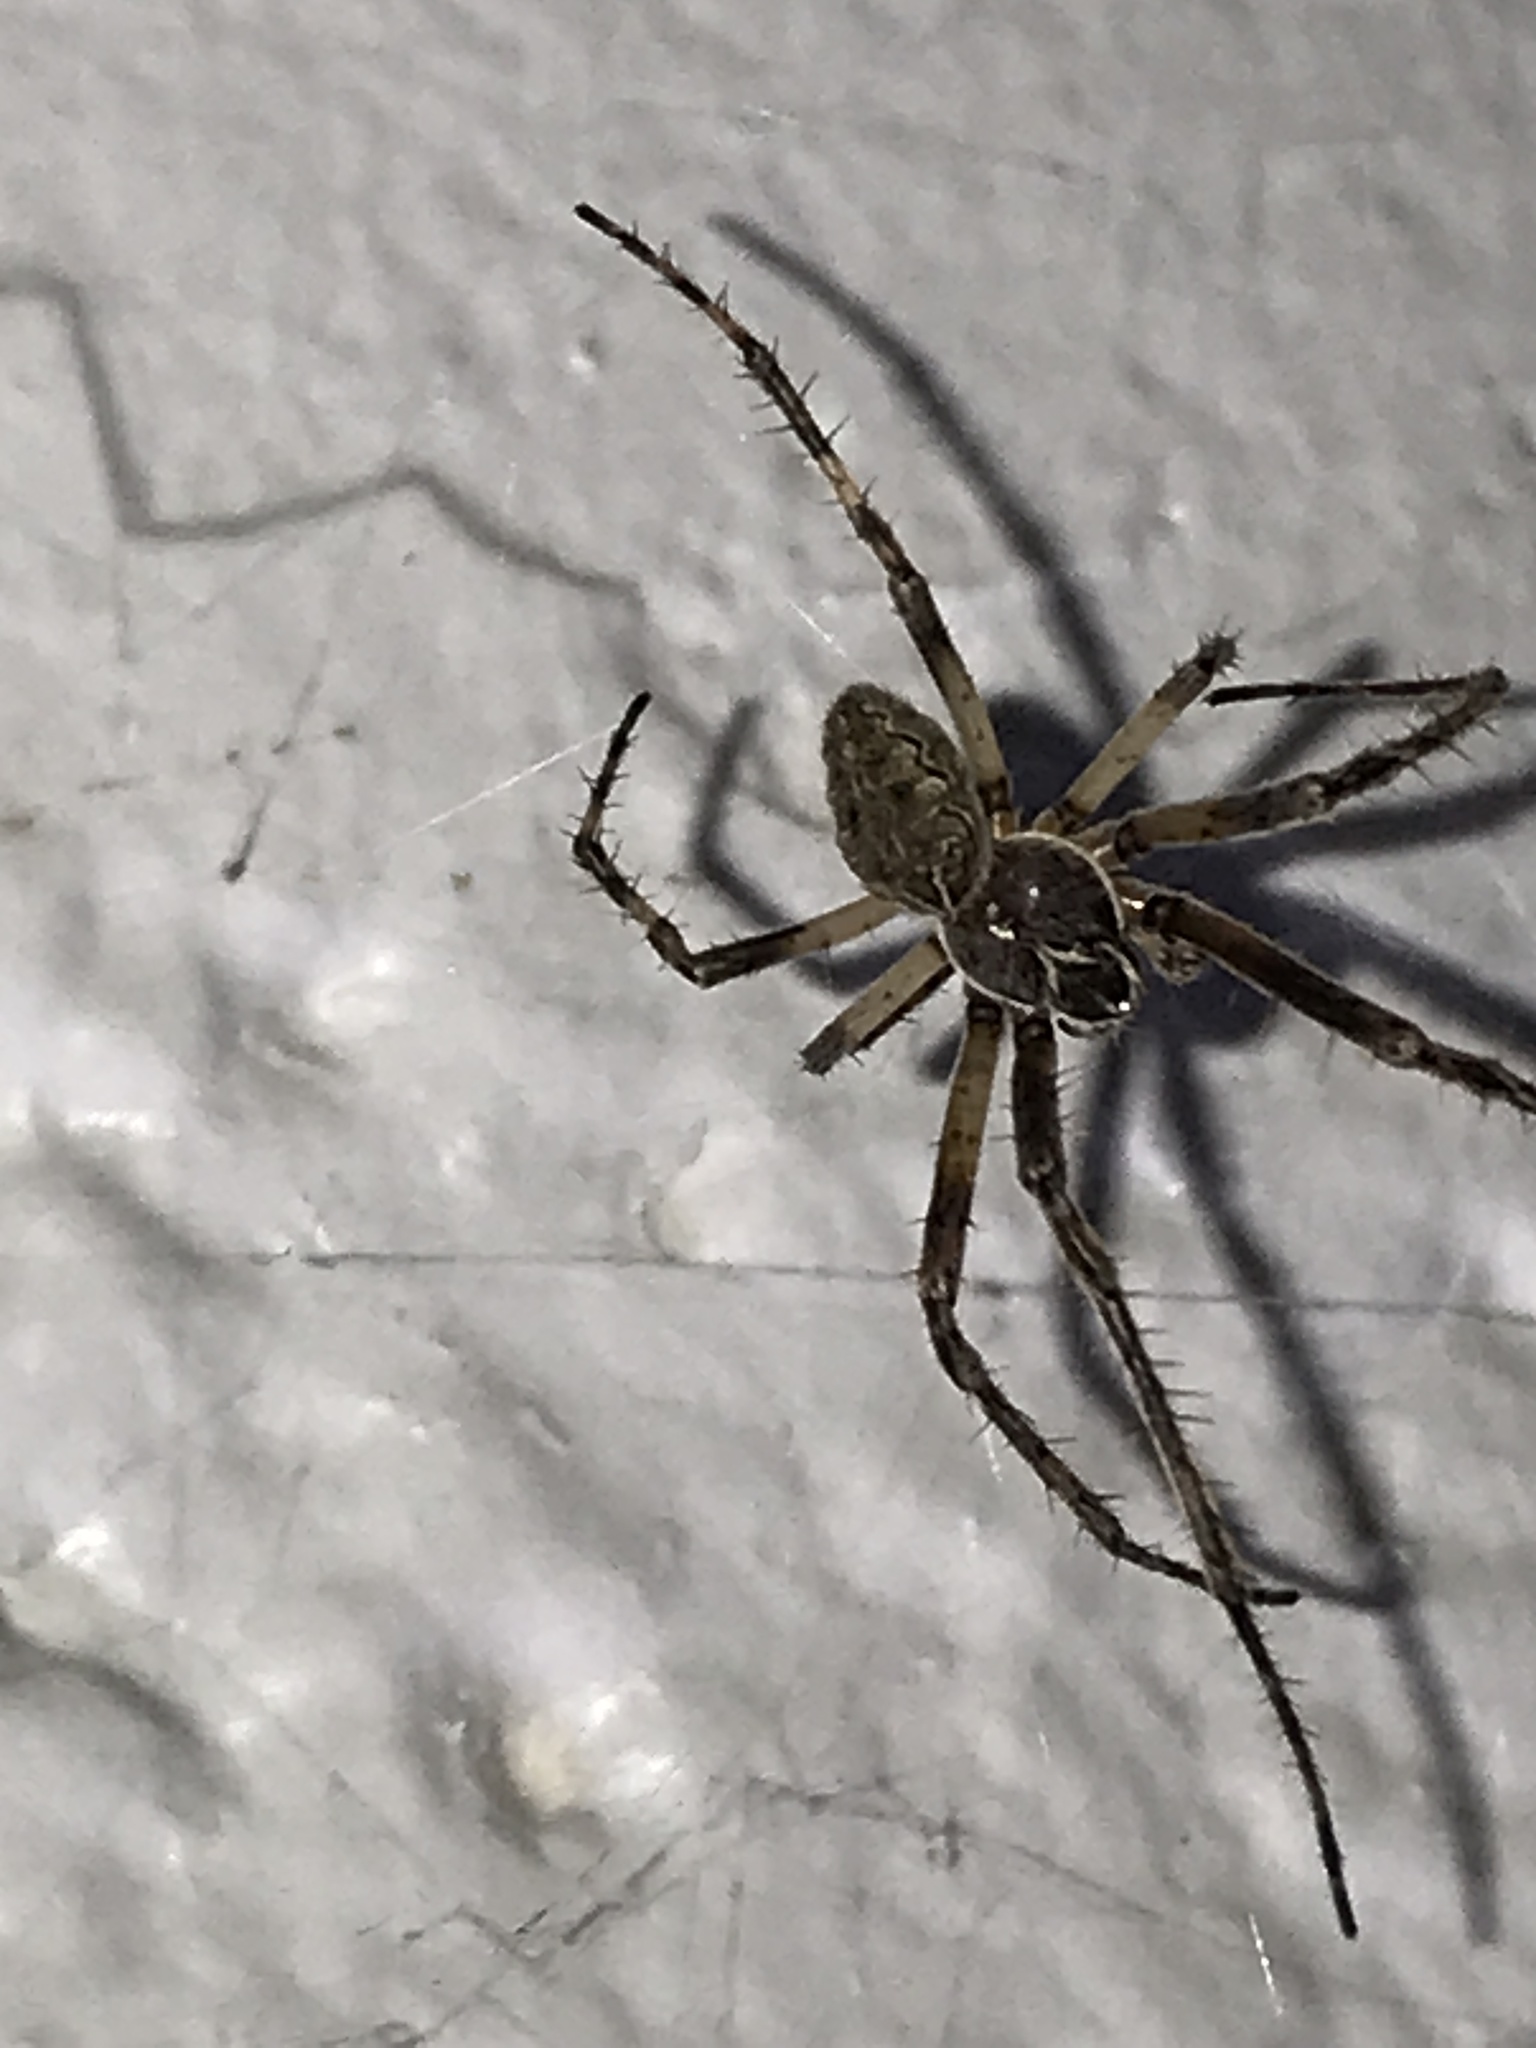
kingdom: Animalia
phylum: Arthropoda
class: Arachnida
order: Araneae
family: Araneidae
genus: Larinioides
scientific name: Larinioides sclopetarius
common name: Bridge orbweaver
